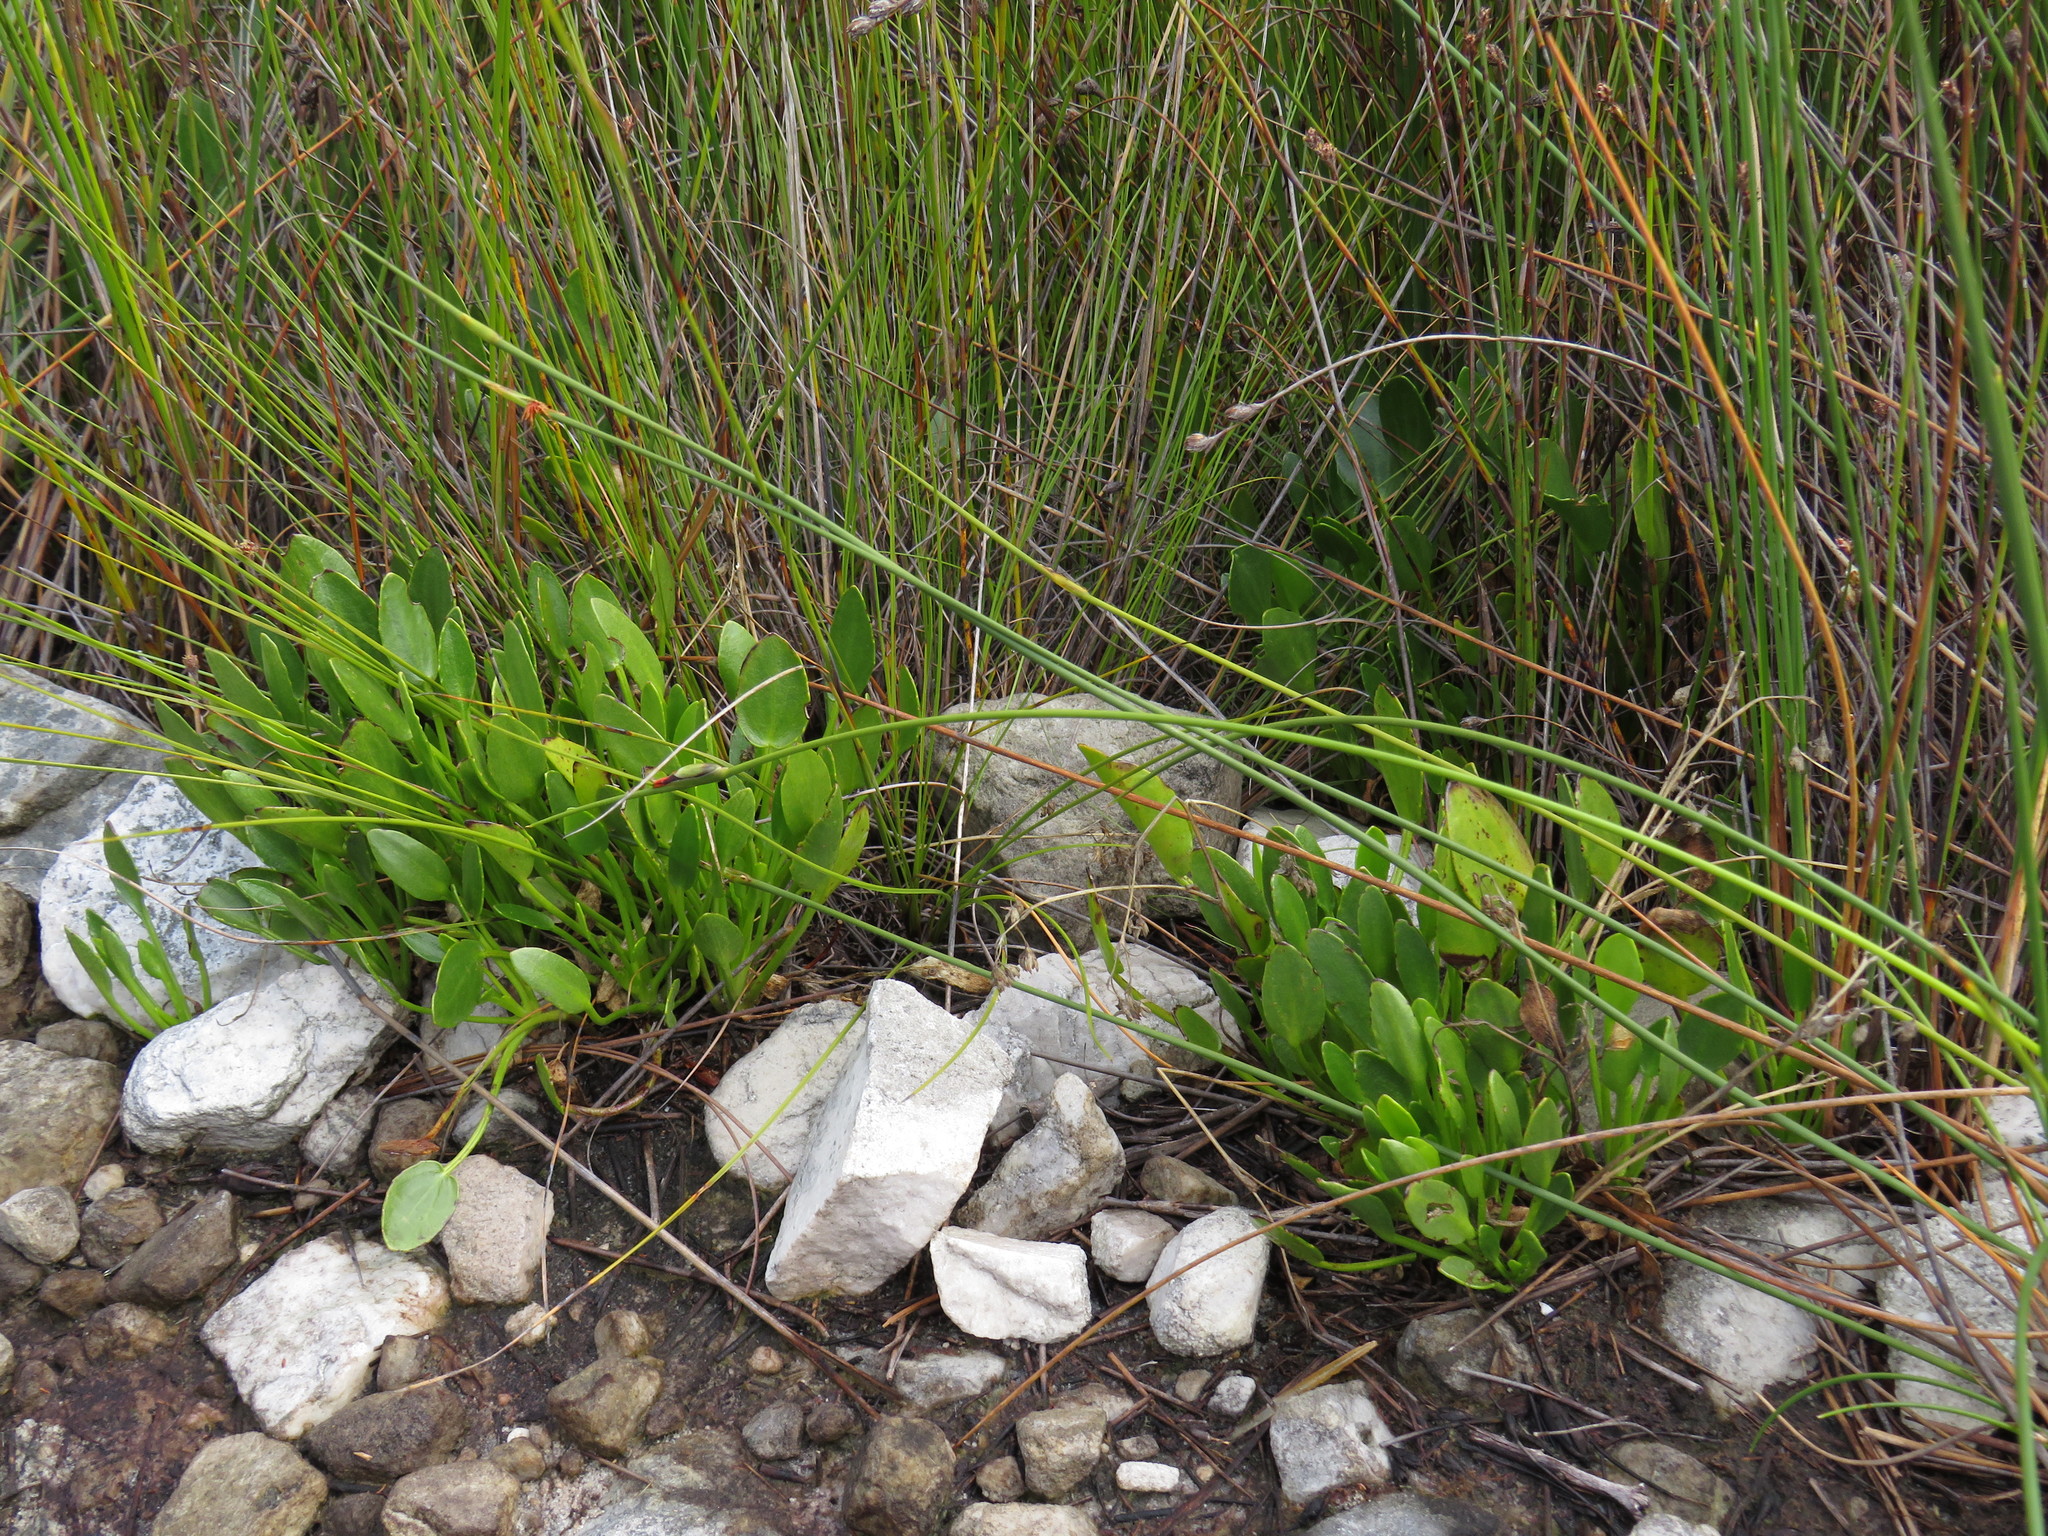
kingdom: Plantae
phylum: Tracheophyta
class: Magnoliopsida
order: Asterales
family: Menyanthaceae
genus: Villarsia
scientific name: Villarsia capensis
